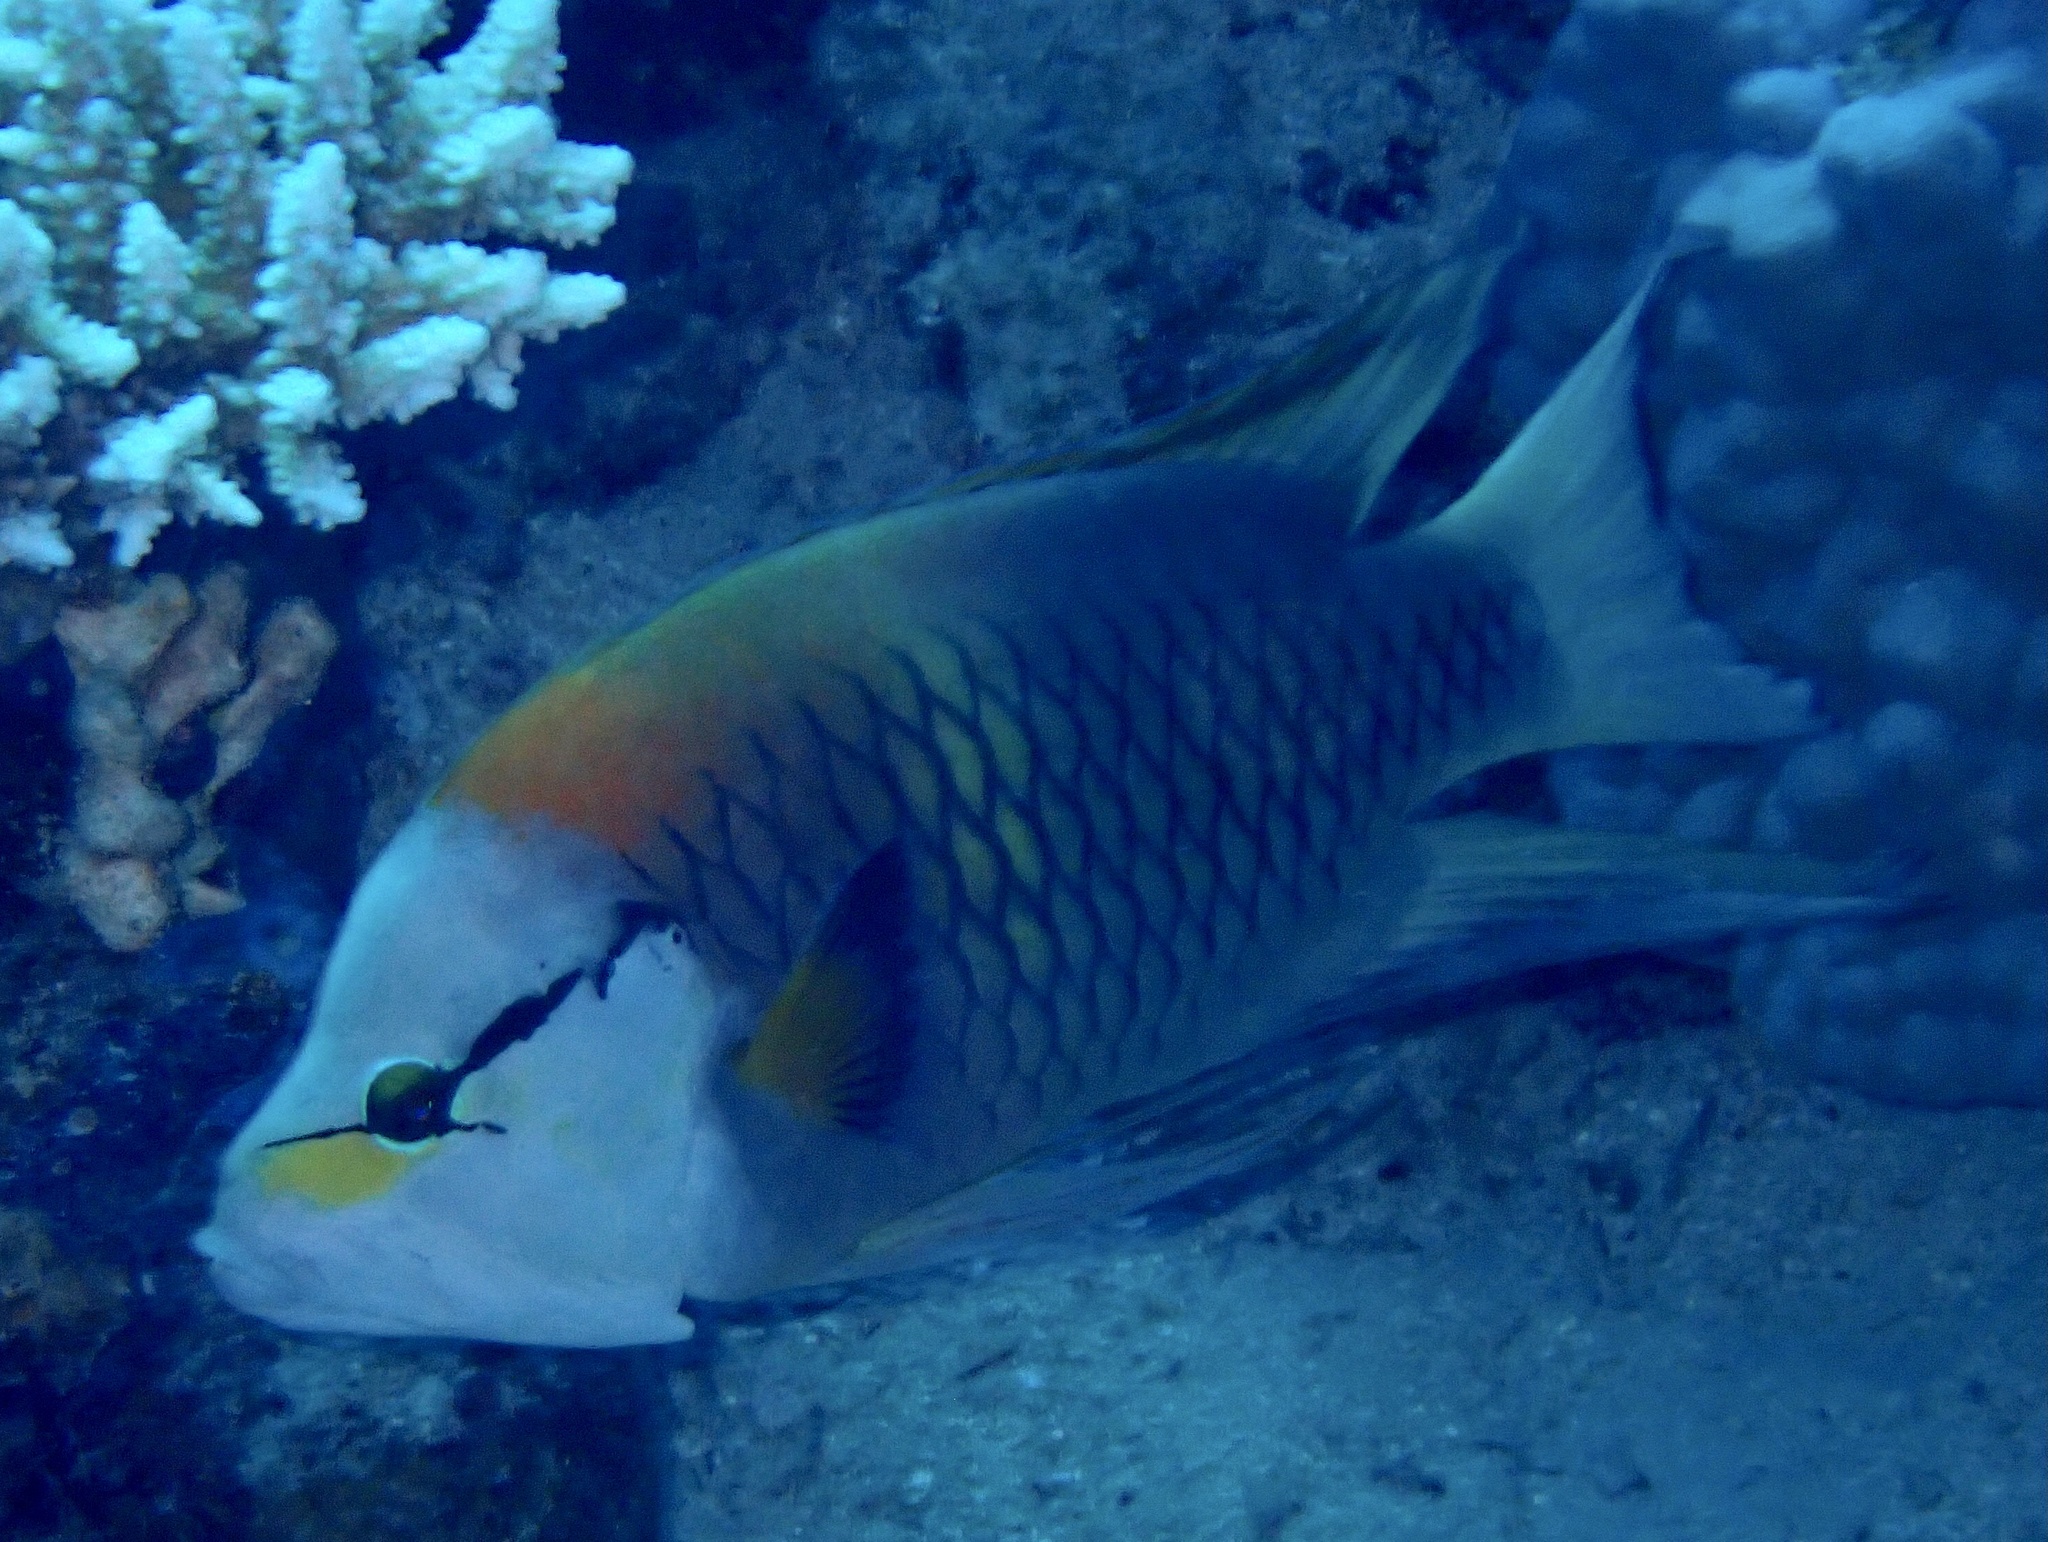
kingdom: Animalia
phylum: Chordata
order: Perciformes
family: Labridae
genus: Epibulus
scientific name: Epibulus insidiator
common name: Slingjaw wrasse
